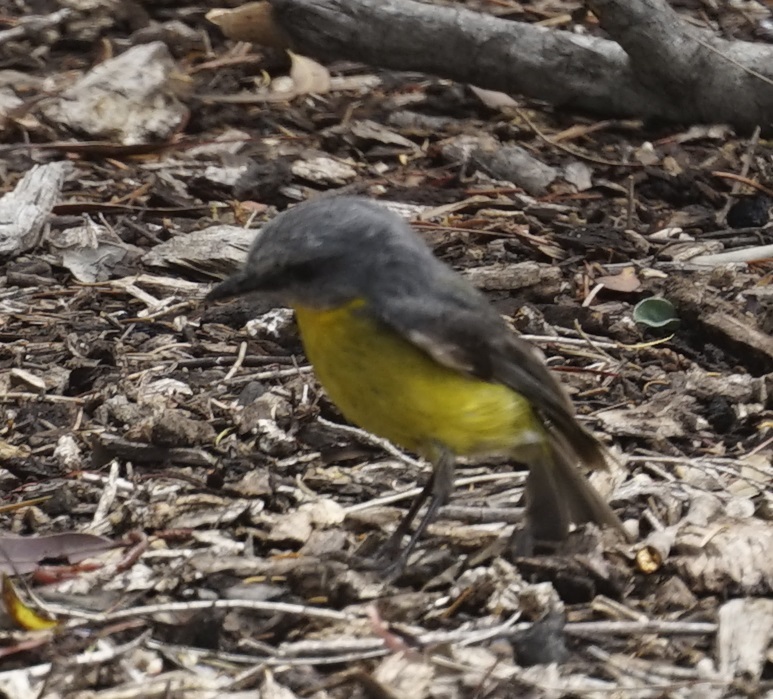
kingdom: Animalia
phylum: Chordata
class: Aves
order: Passeriformes
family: Petroicidae
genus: Eopsaltria
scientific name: Eopsaltria australis
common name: Eastern yellow robin
